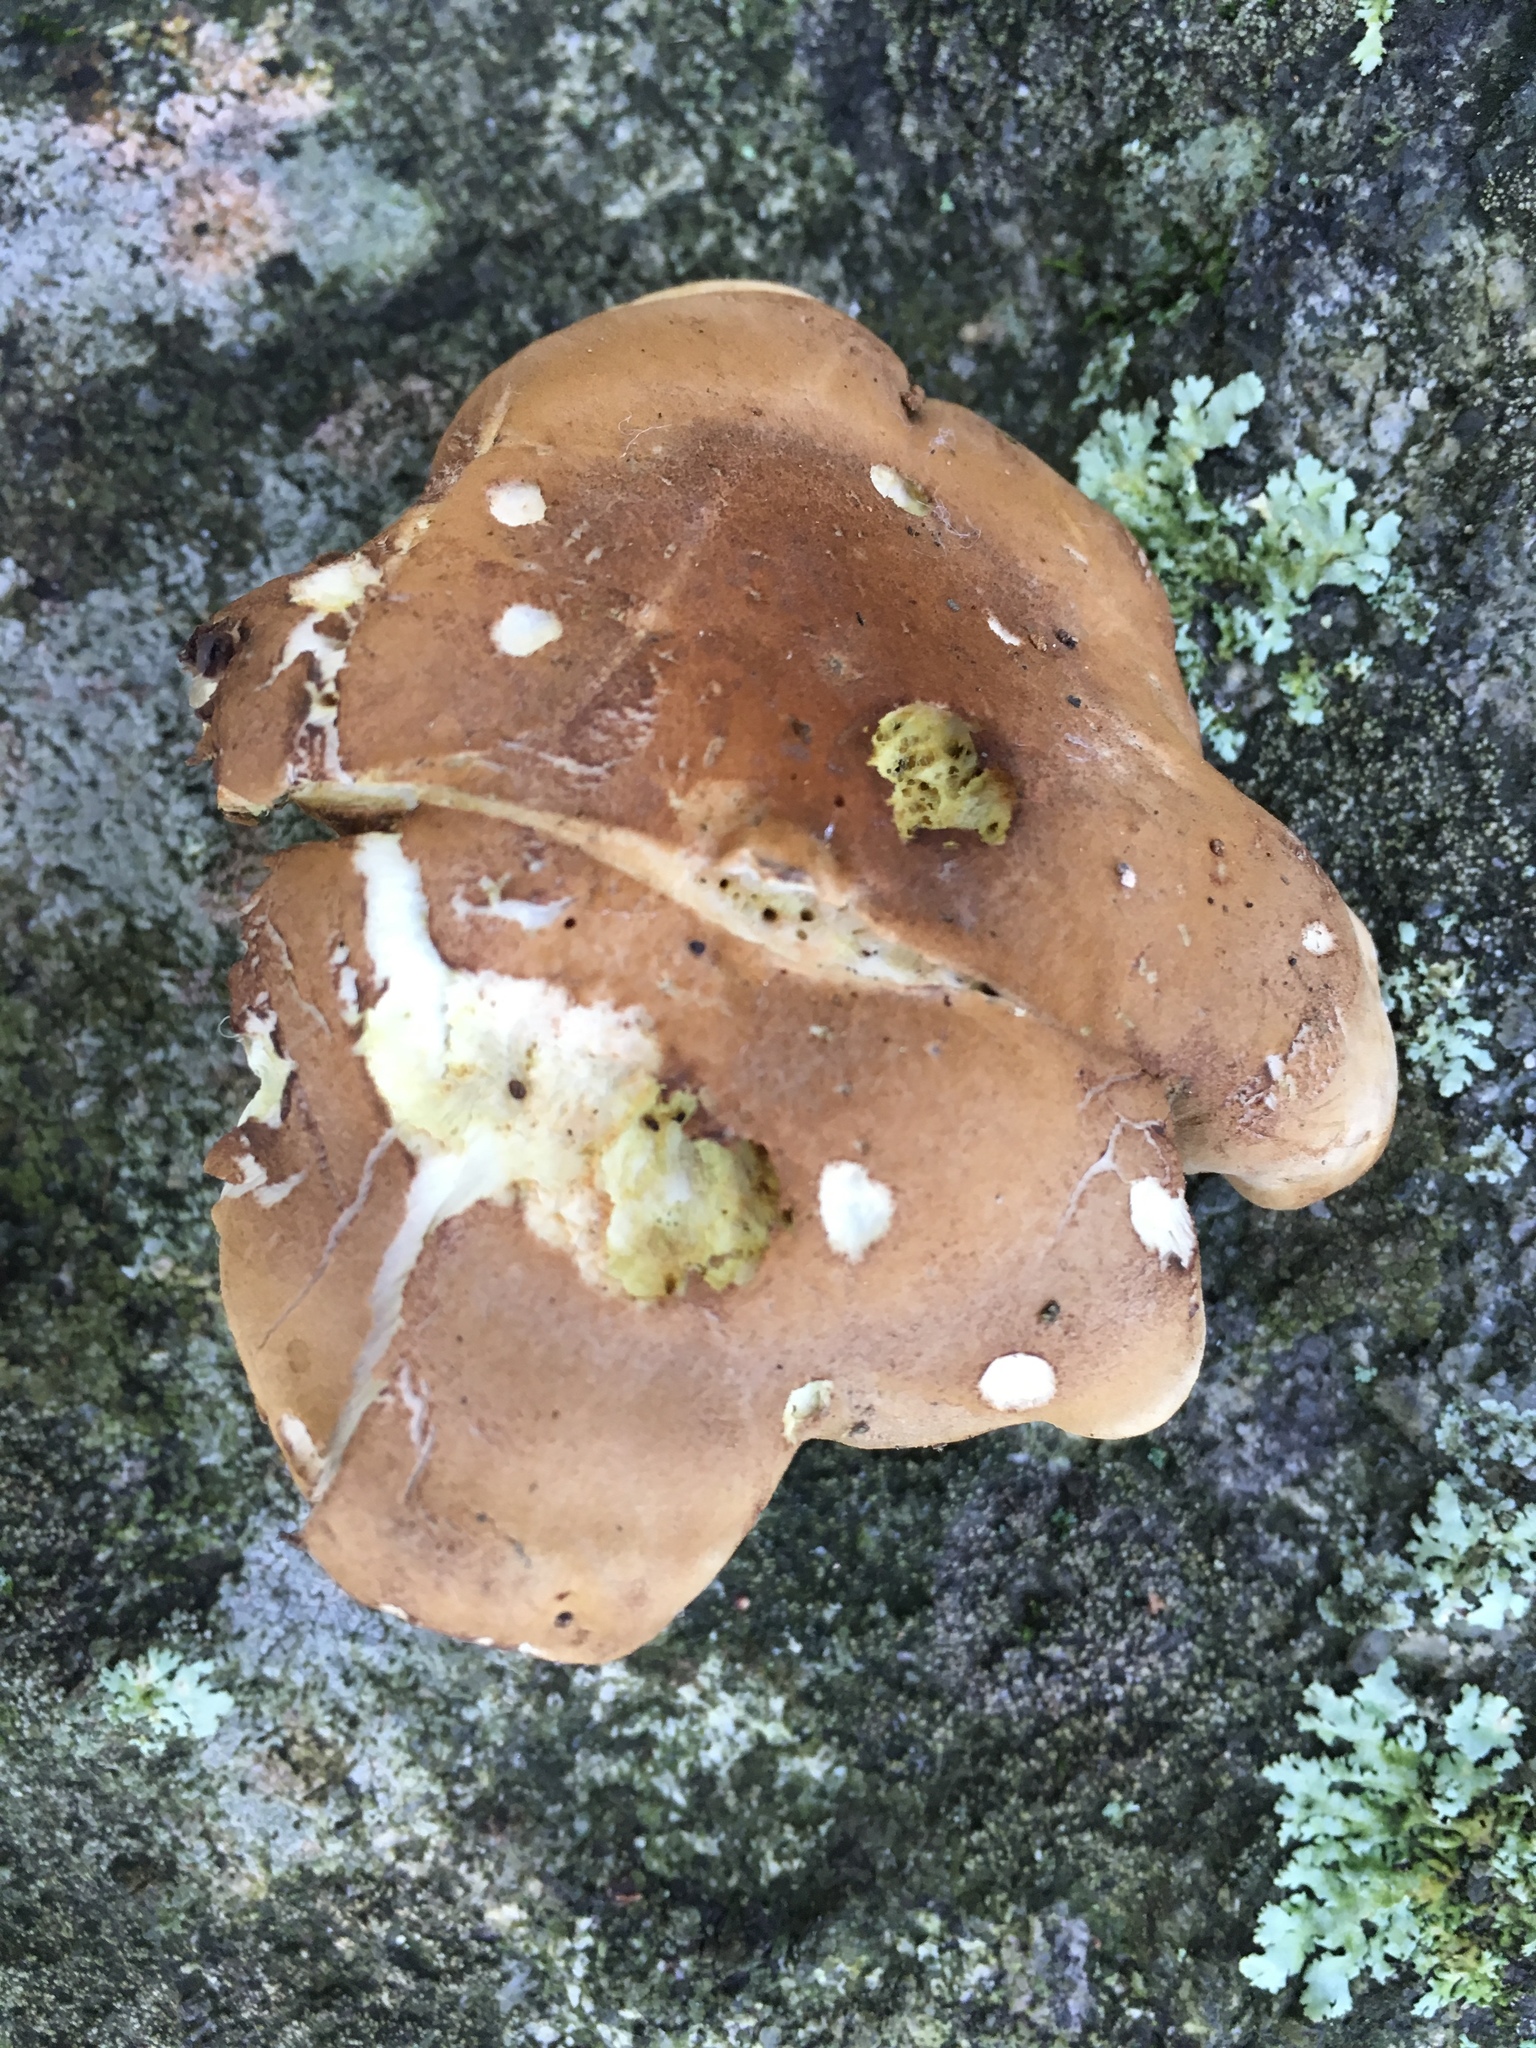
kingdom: Fungi
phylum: Basidiomycota
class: Agaricomycetes
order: Russulales
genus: Laeticutis
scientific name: Laeticutis cristata
